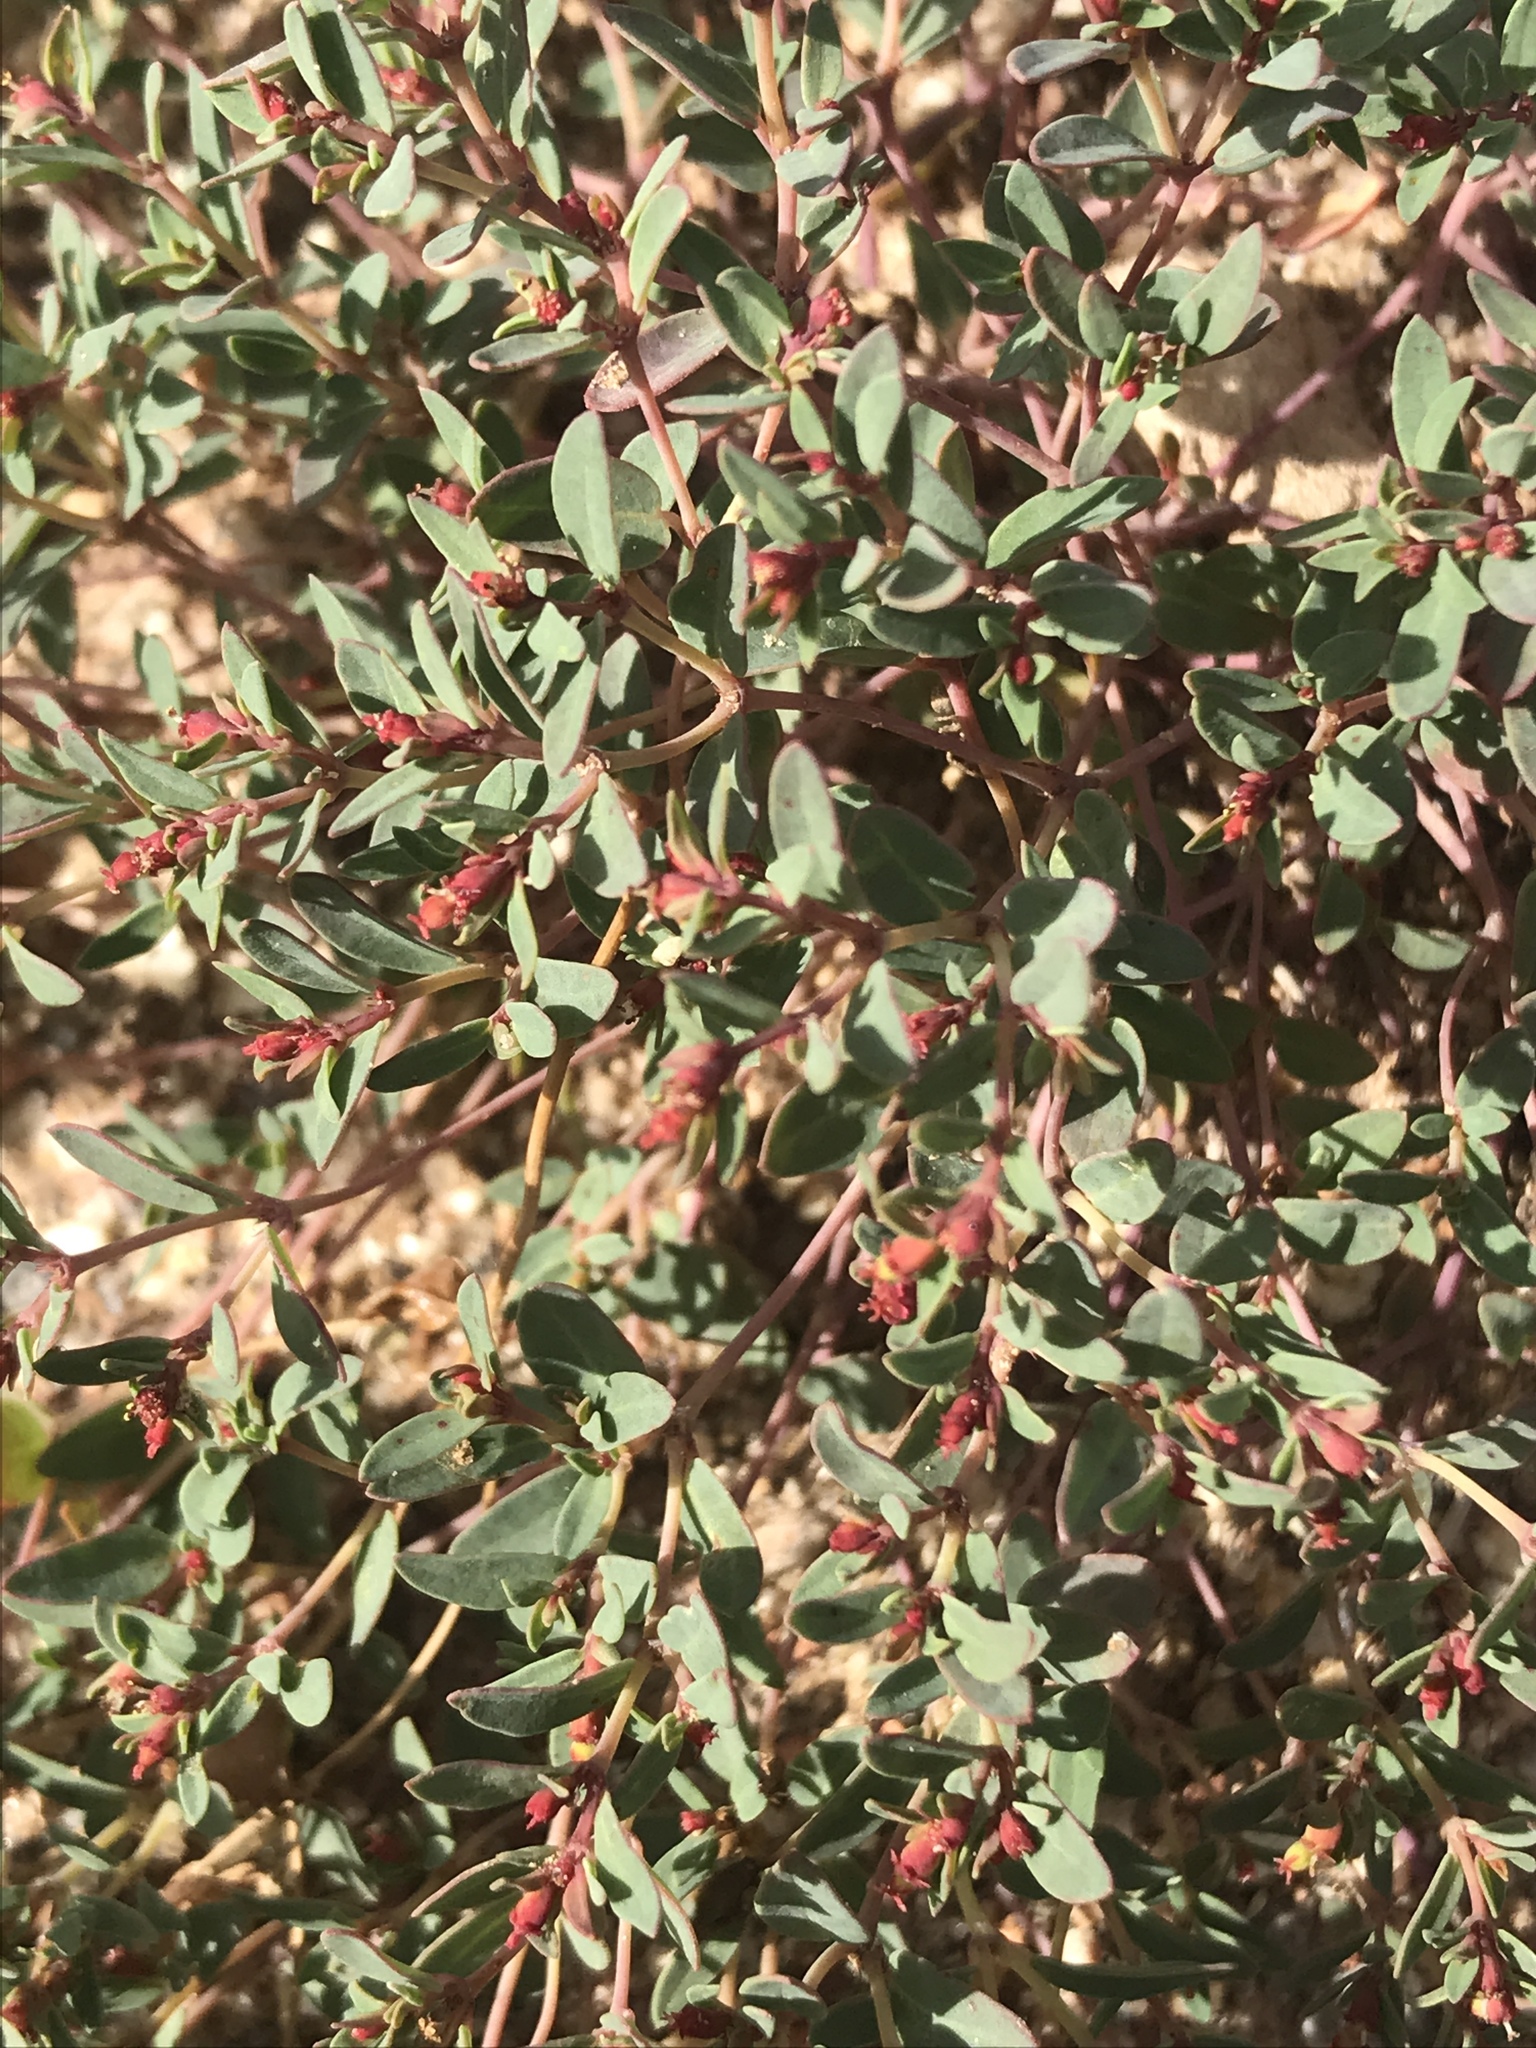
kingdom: Plantae
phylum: Tracheophyta
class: Magnoliopsida
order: Malpighiales
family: Euphorbiaceae
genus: Euphorbia
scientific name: Euphorbia fendleri
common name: Fendler's euphorbia
